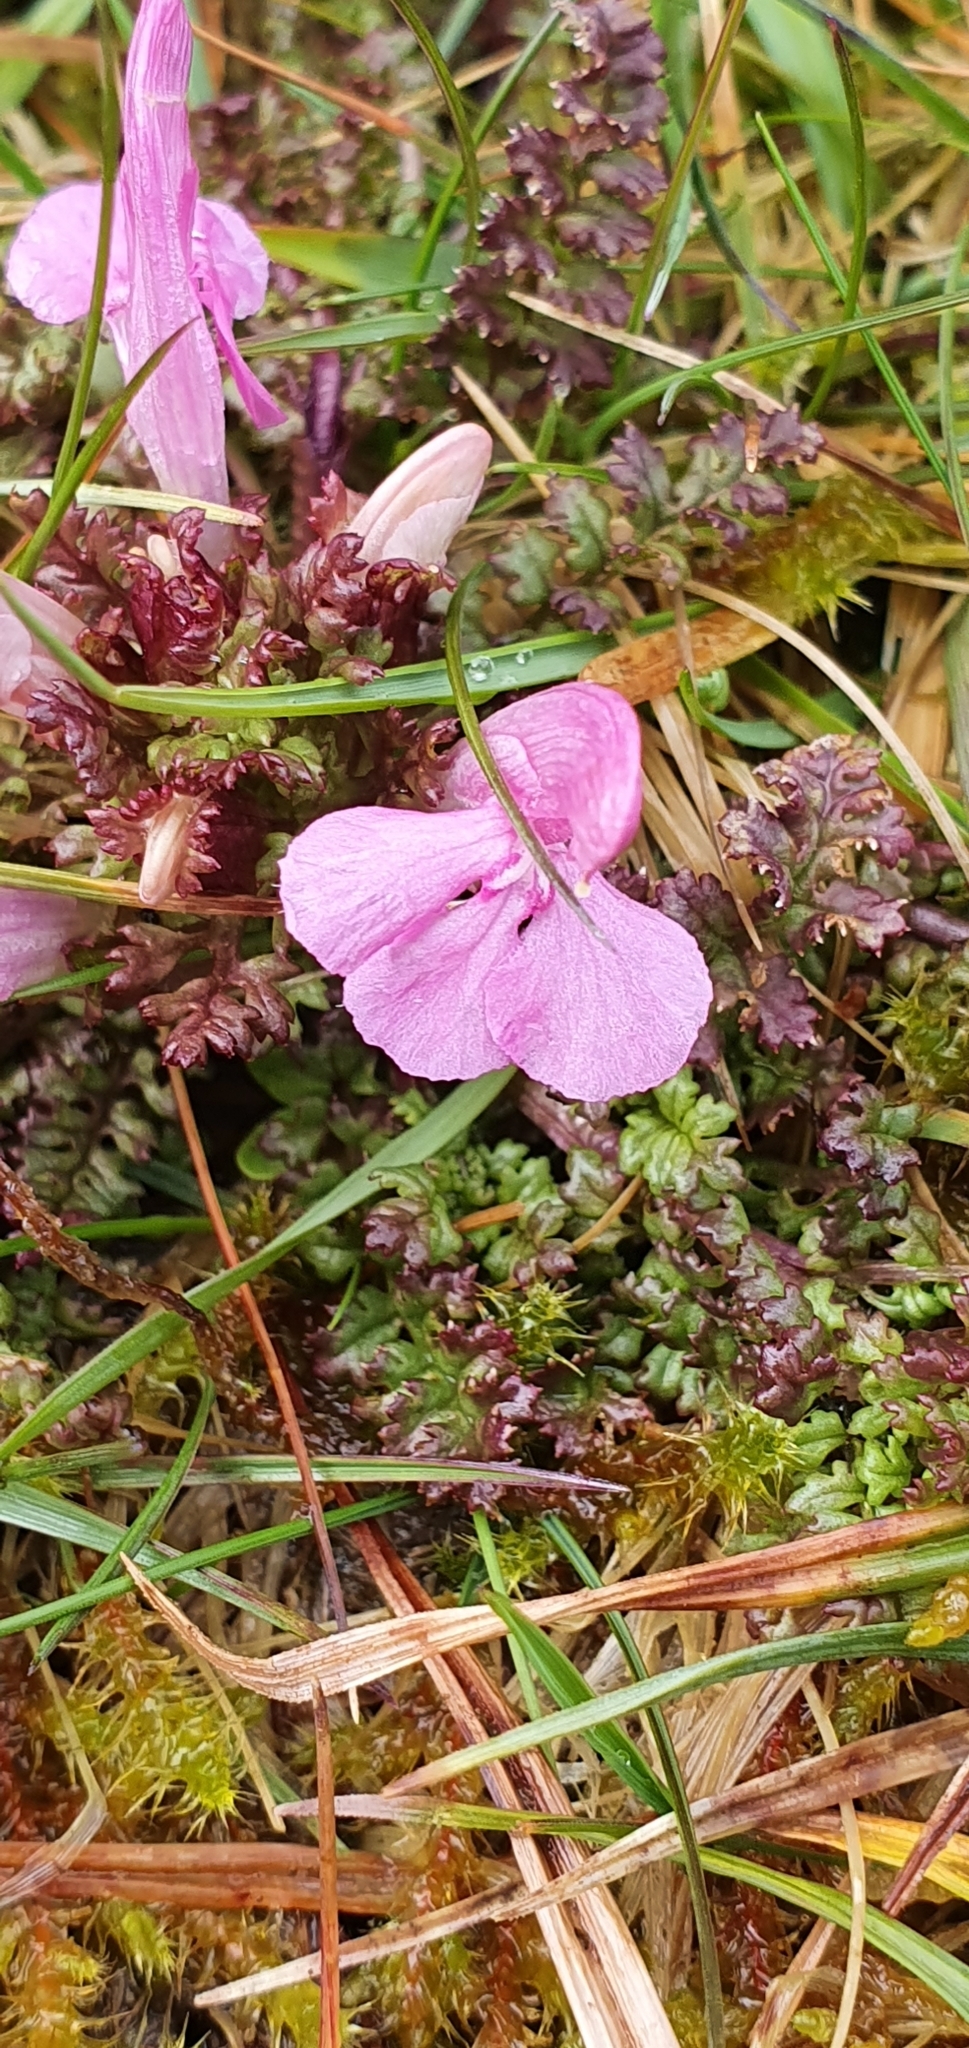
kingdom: Plantae
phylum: Tracheophyta
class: Magnoliopsida
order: Lamiales
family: Orobanchaceae
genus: Pedicularis
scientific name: Pedicularis sylvatica
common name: Lousewort
